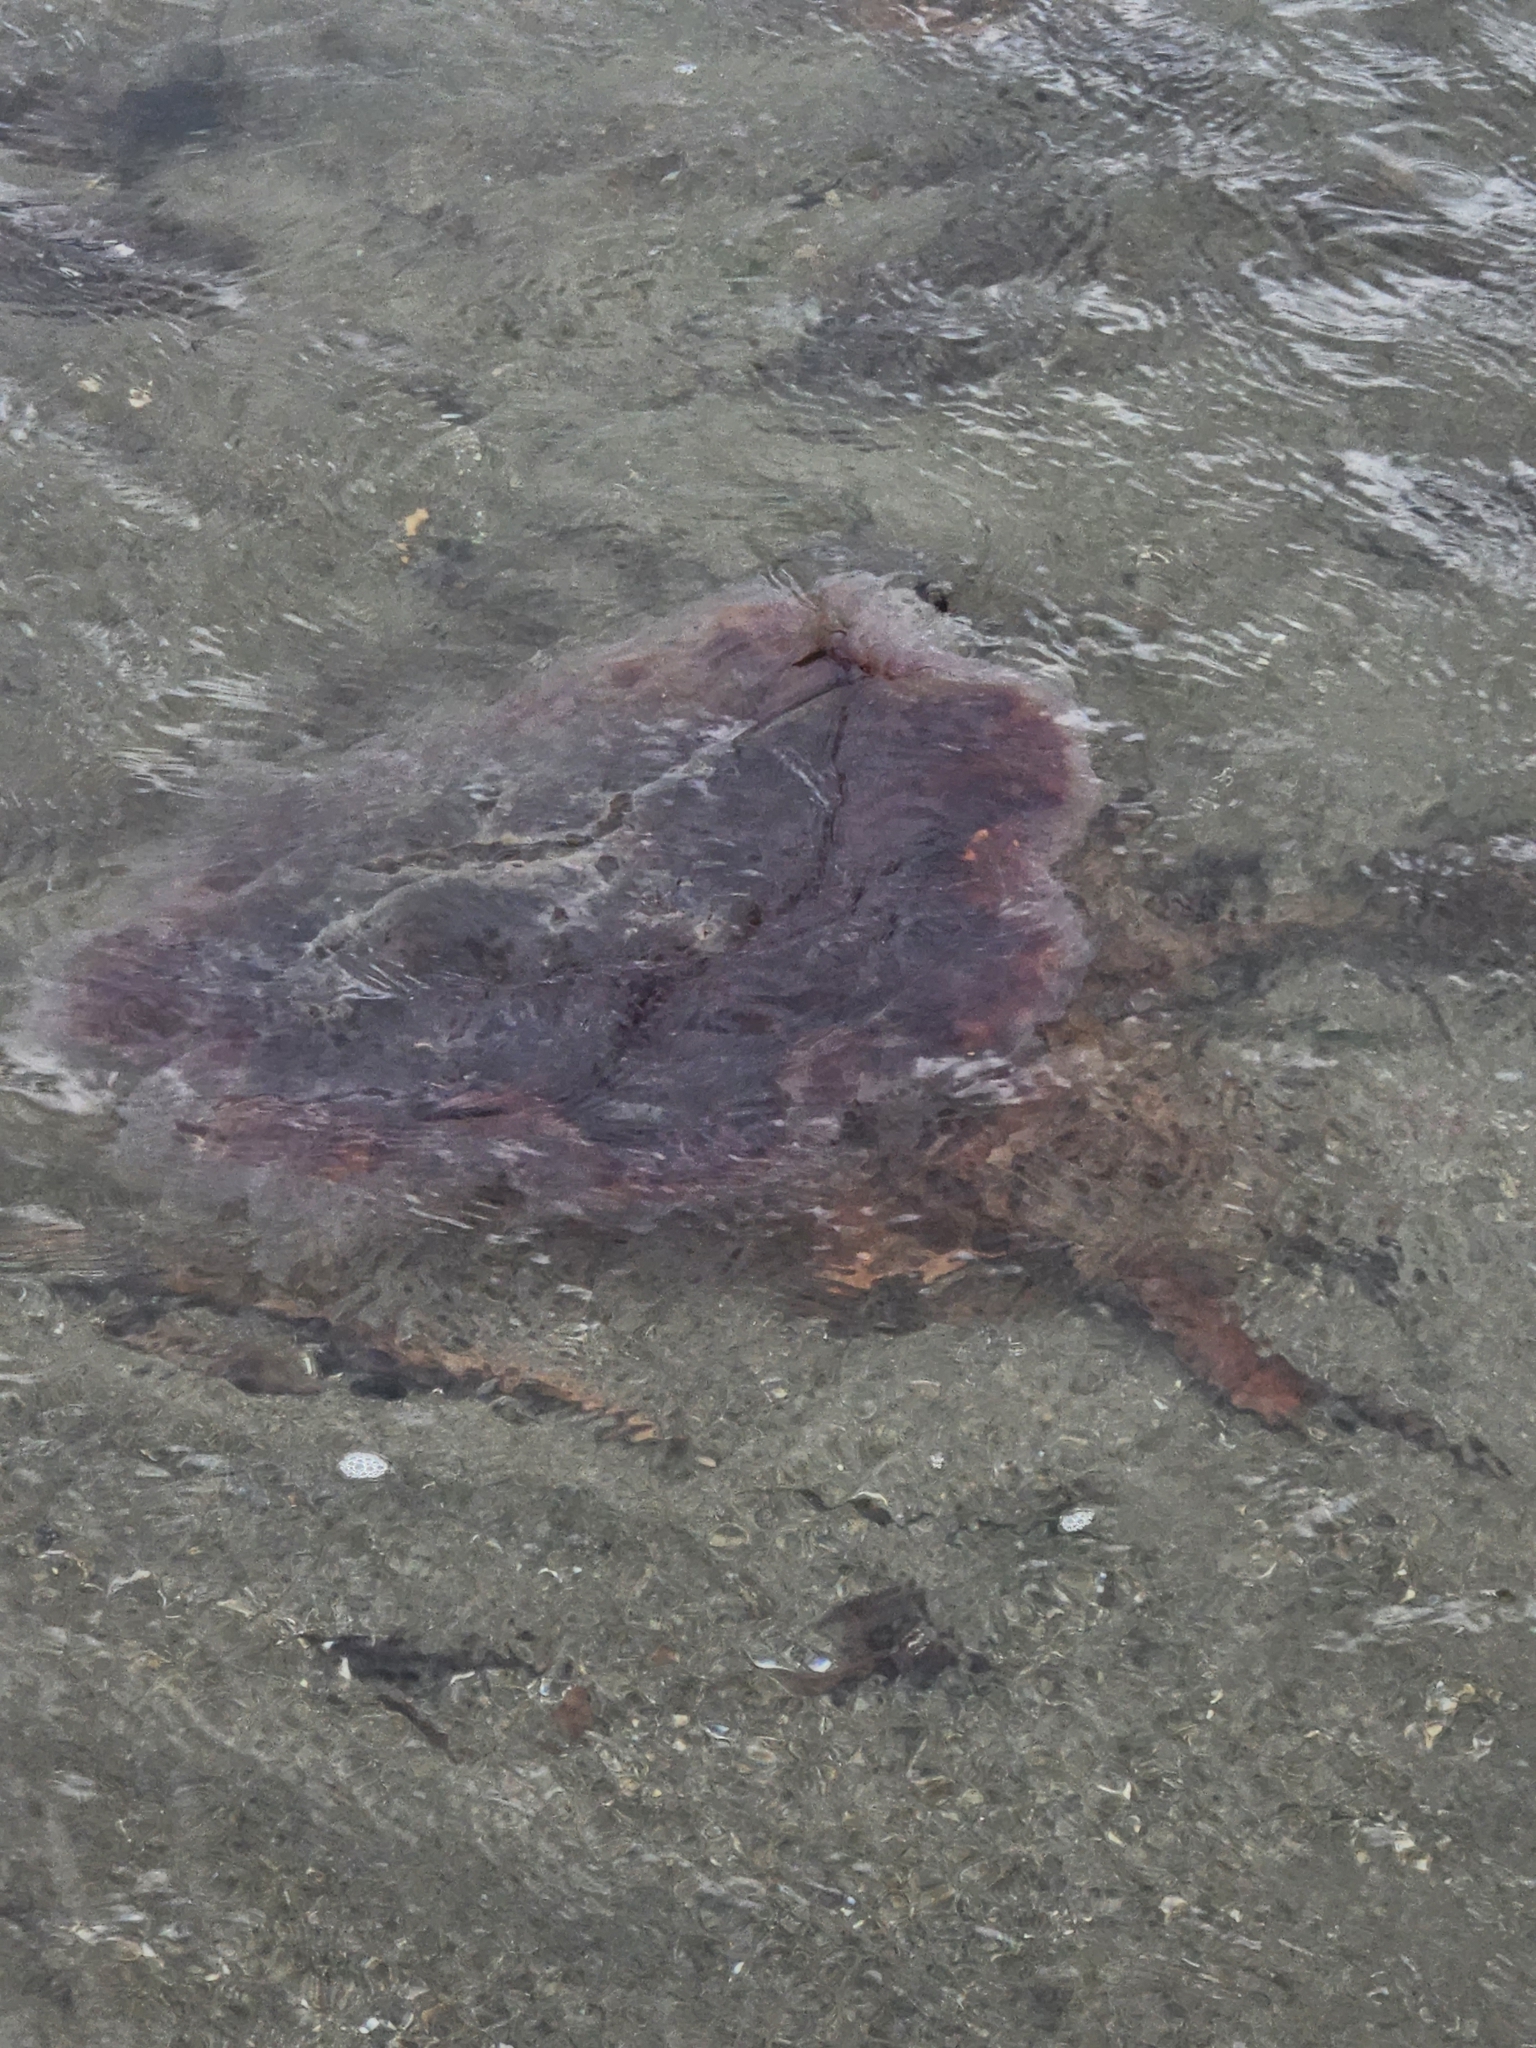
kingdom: Animalia
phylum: Cnidaria
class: Scyphozoa
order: Semaeostomeae
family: Cyaneidae
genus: Cyanea
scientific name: Cyanea ferruginea
